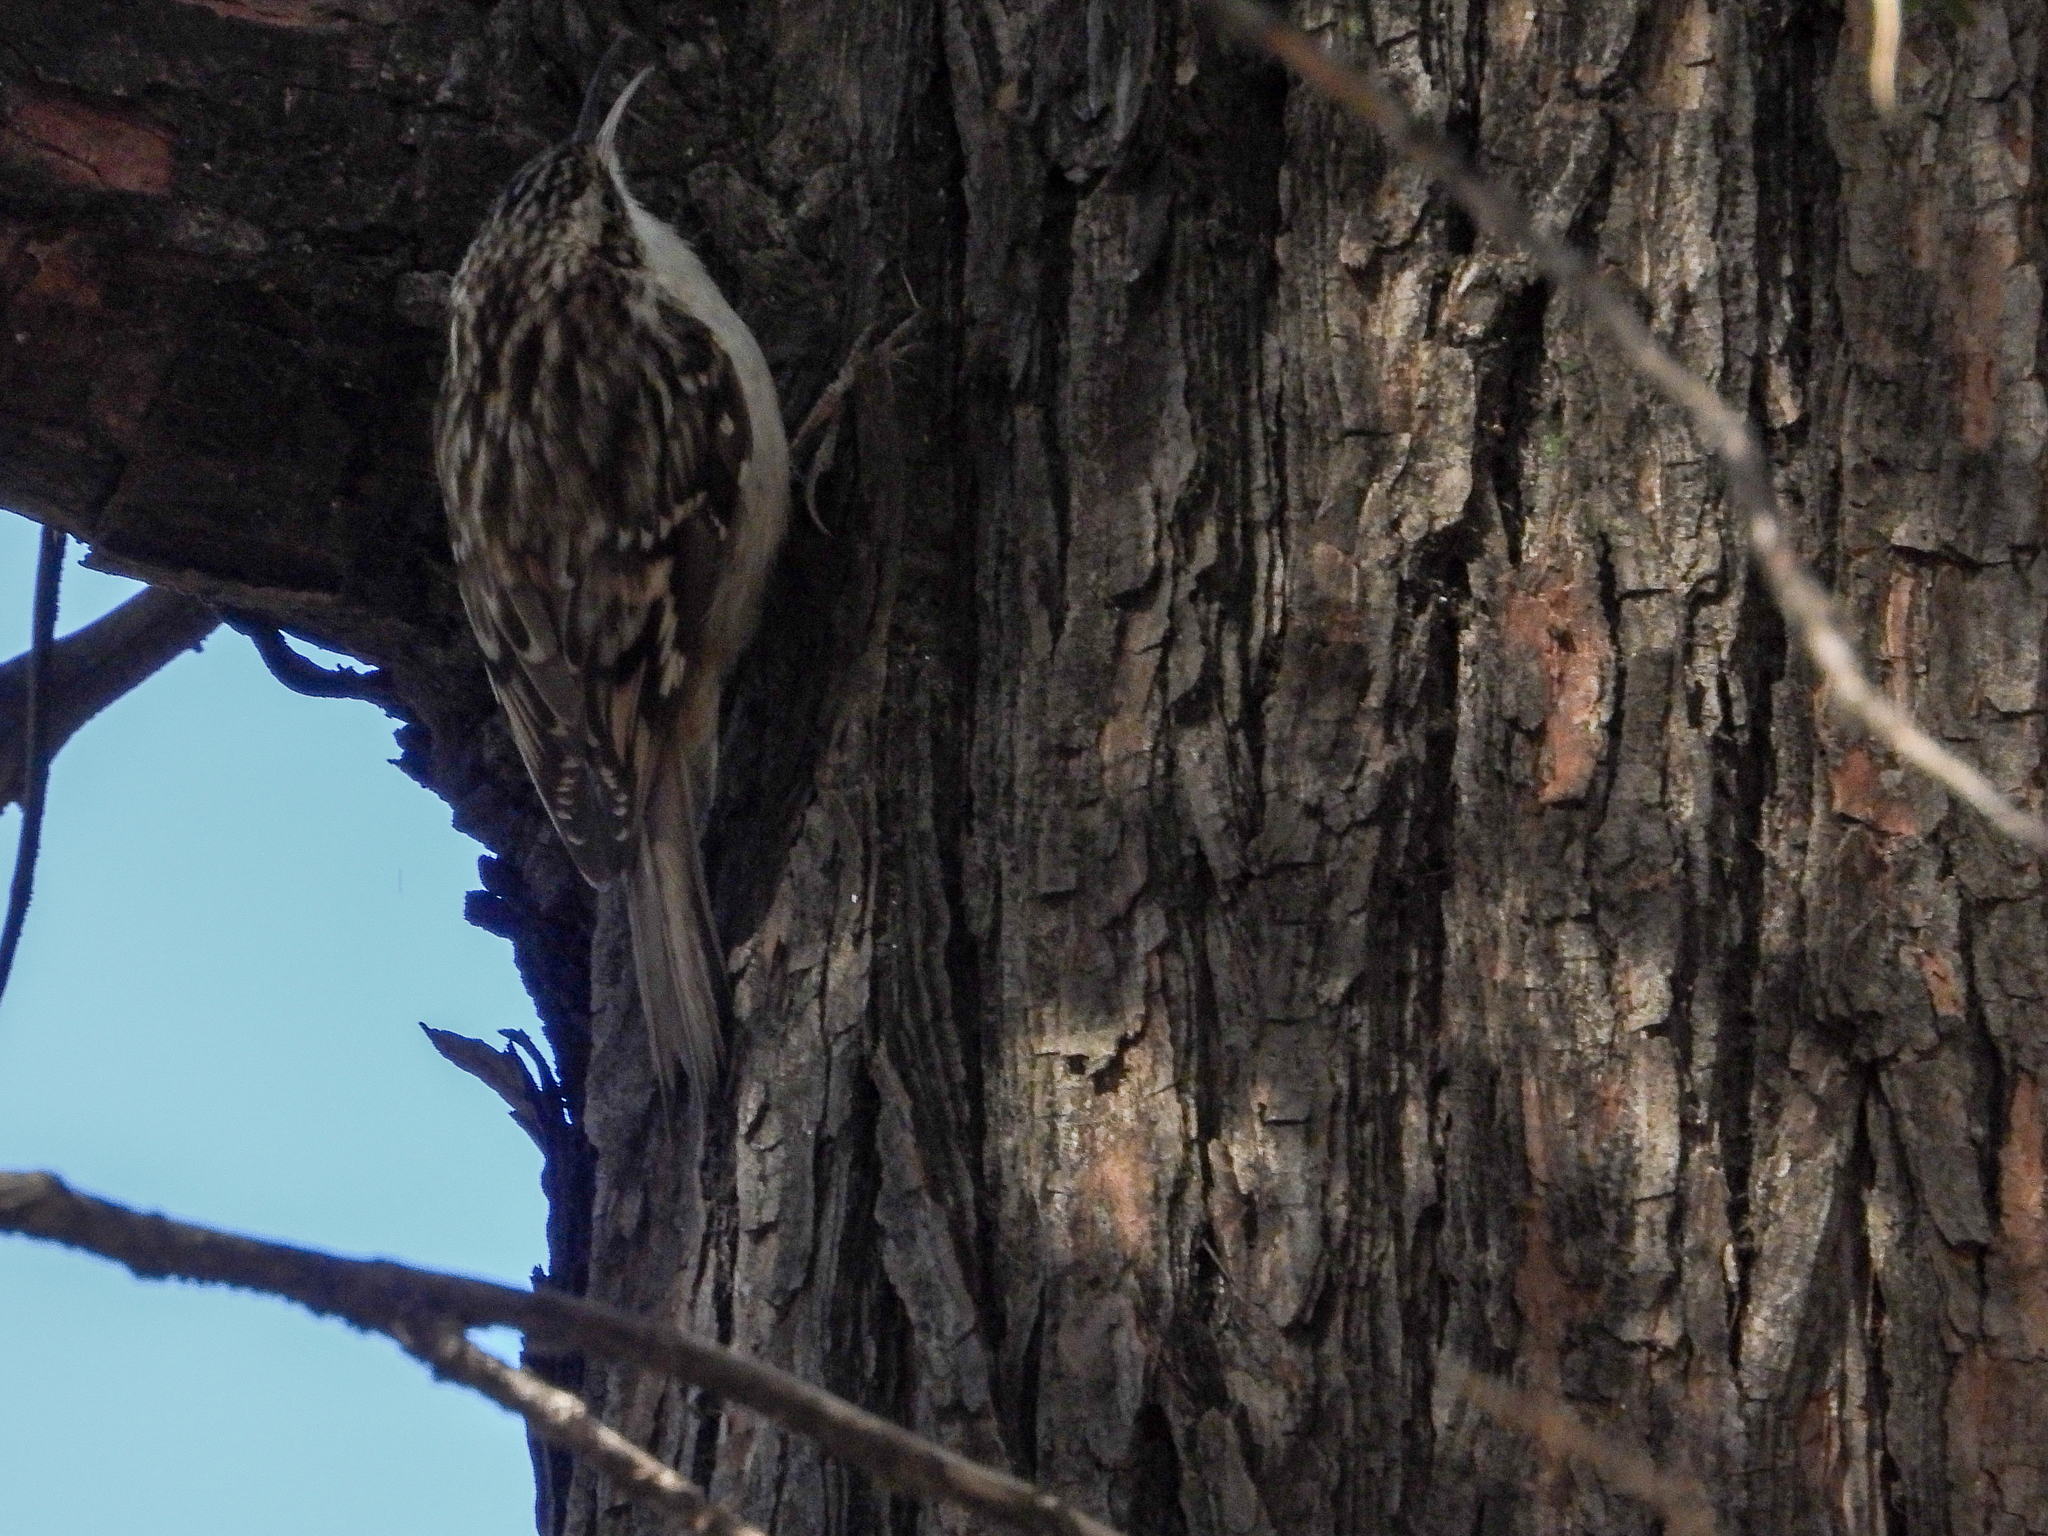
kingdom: Animalia
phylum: Chordata
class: Aves
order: Passeriformes
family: Certhiidae
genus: Certhia
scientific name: Certhia americana
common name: Brown creeper
